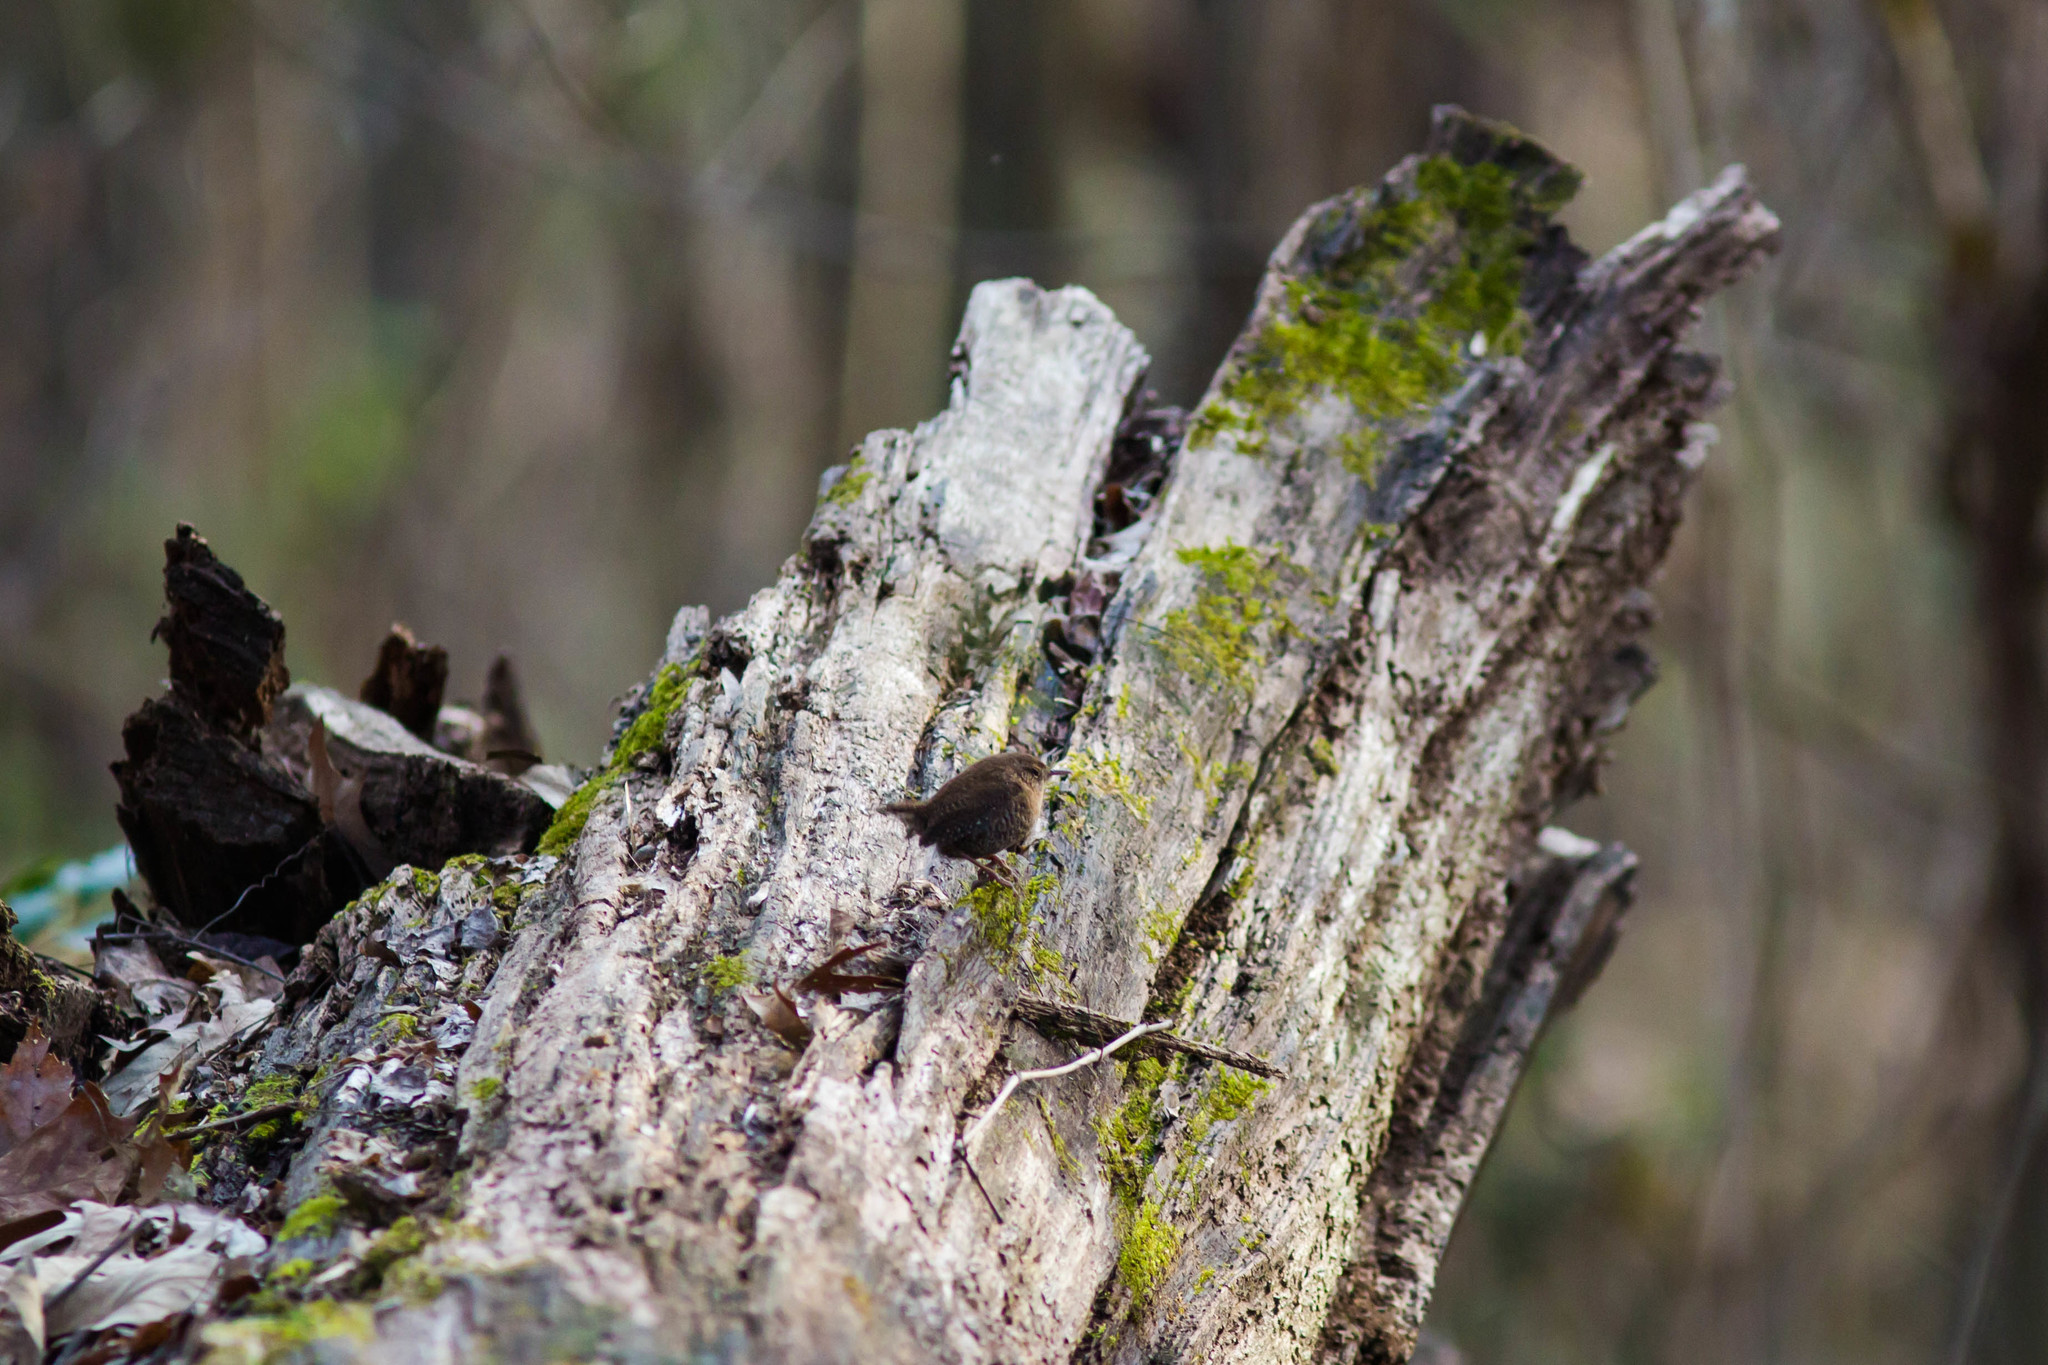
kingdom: Animalia
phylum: Chordata
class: Aves
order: Passeriformes
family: Troglodytidae
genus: Troglodytes
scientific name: Troglodytes hiemalis
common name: Winter wren
